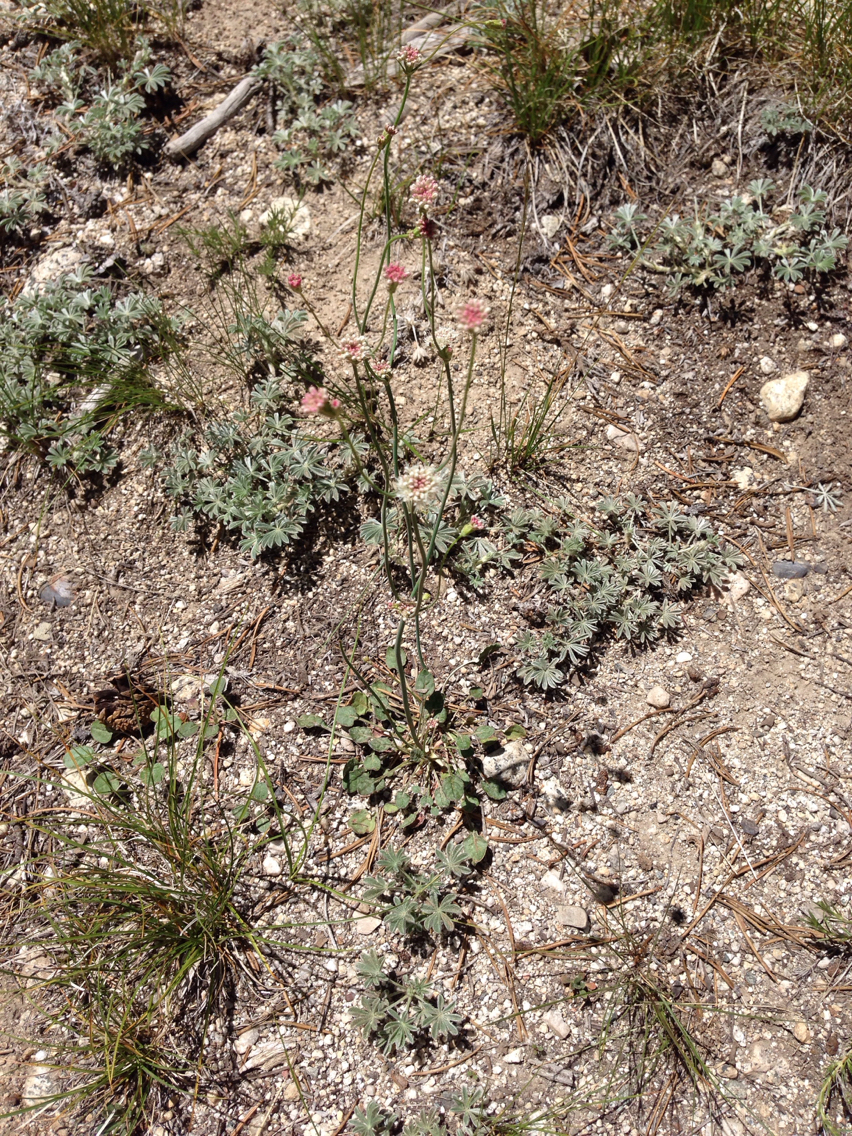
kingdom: Plantae
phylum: Tracheophyta
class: Magnoliopsida
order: Caryophyllales
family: Polygonaceae
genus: Eriogonum
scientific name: Eriogonum nudum
